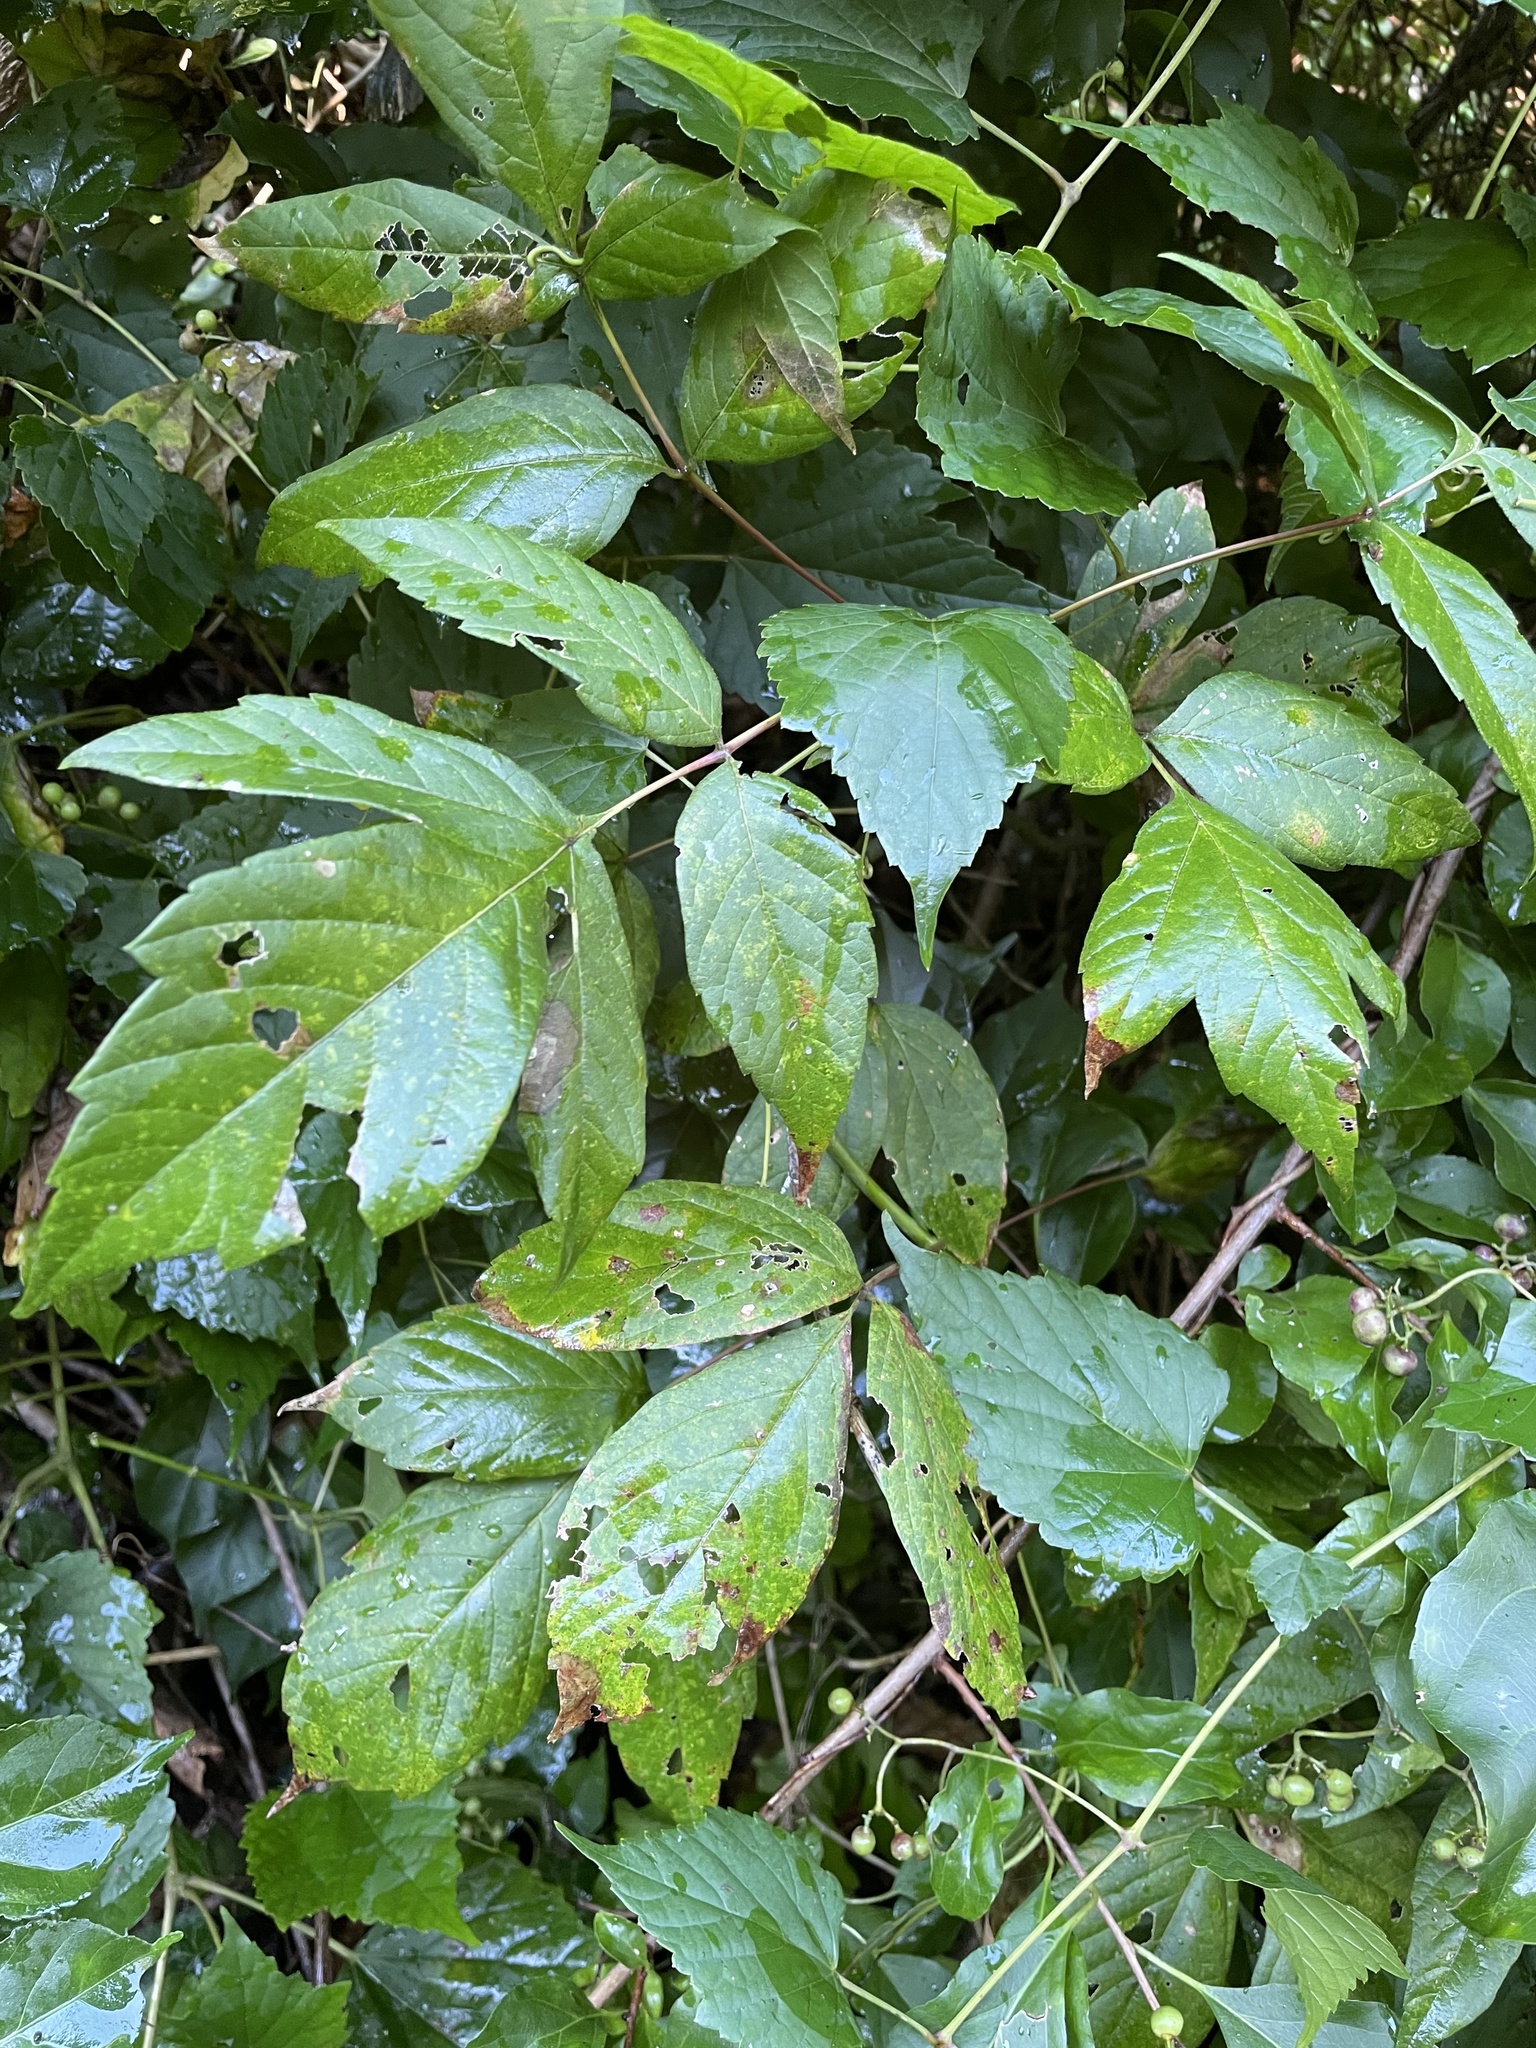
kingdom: Plantae
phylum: Tracheophyta
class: Magnoliopsida
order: Sapindales
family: Sapindaceae
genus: Acer
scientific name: Acer negundo
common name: Ashleaf maple
